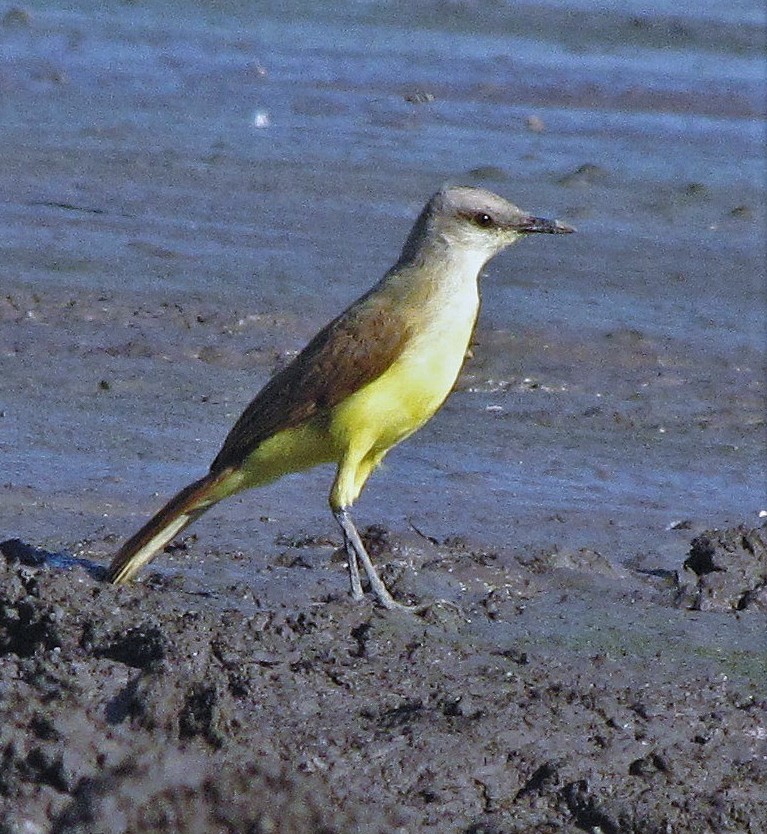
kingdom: Animalia
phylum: Chordata
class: Aves
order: Passeriformes
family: Tyrannidae
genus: Machetornis
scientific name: Machetornis rixosa
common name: Cattle tyrant
